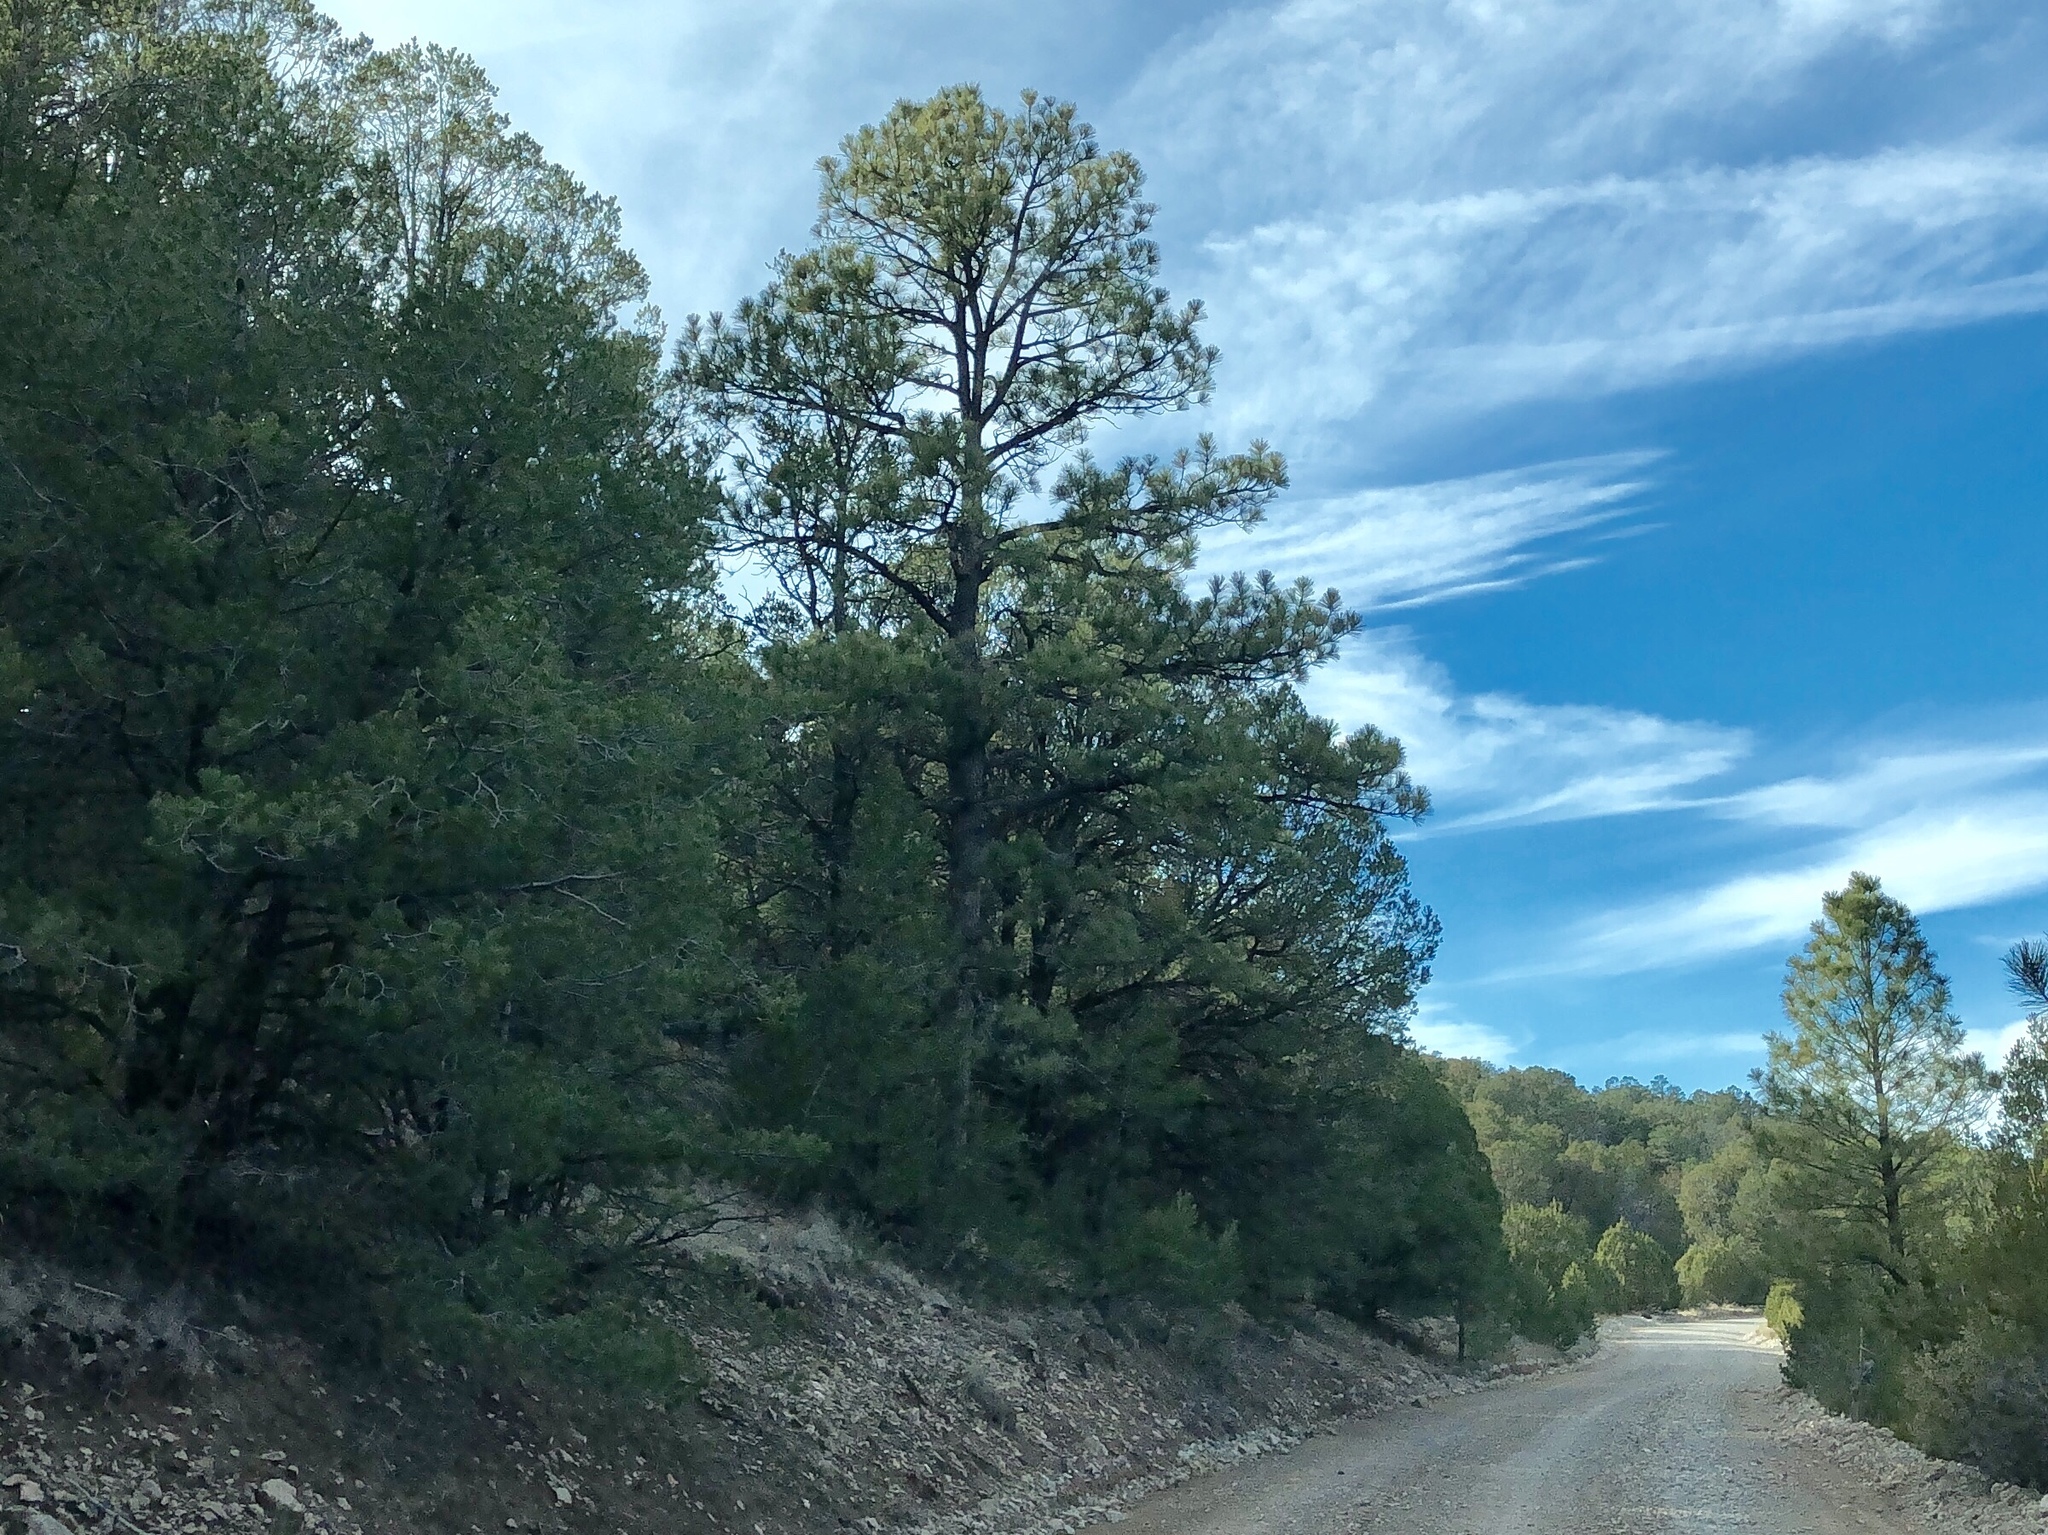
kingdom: Plantae
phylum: Tracheophyta
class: Pinopsida
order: Pinales
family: Pinaceae
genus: Pinus
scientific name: Pinus ponderosa
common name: Western yellow-pine
